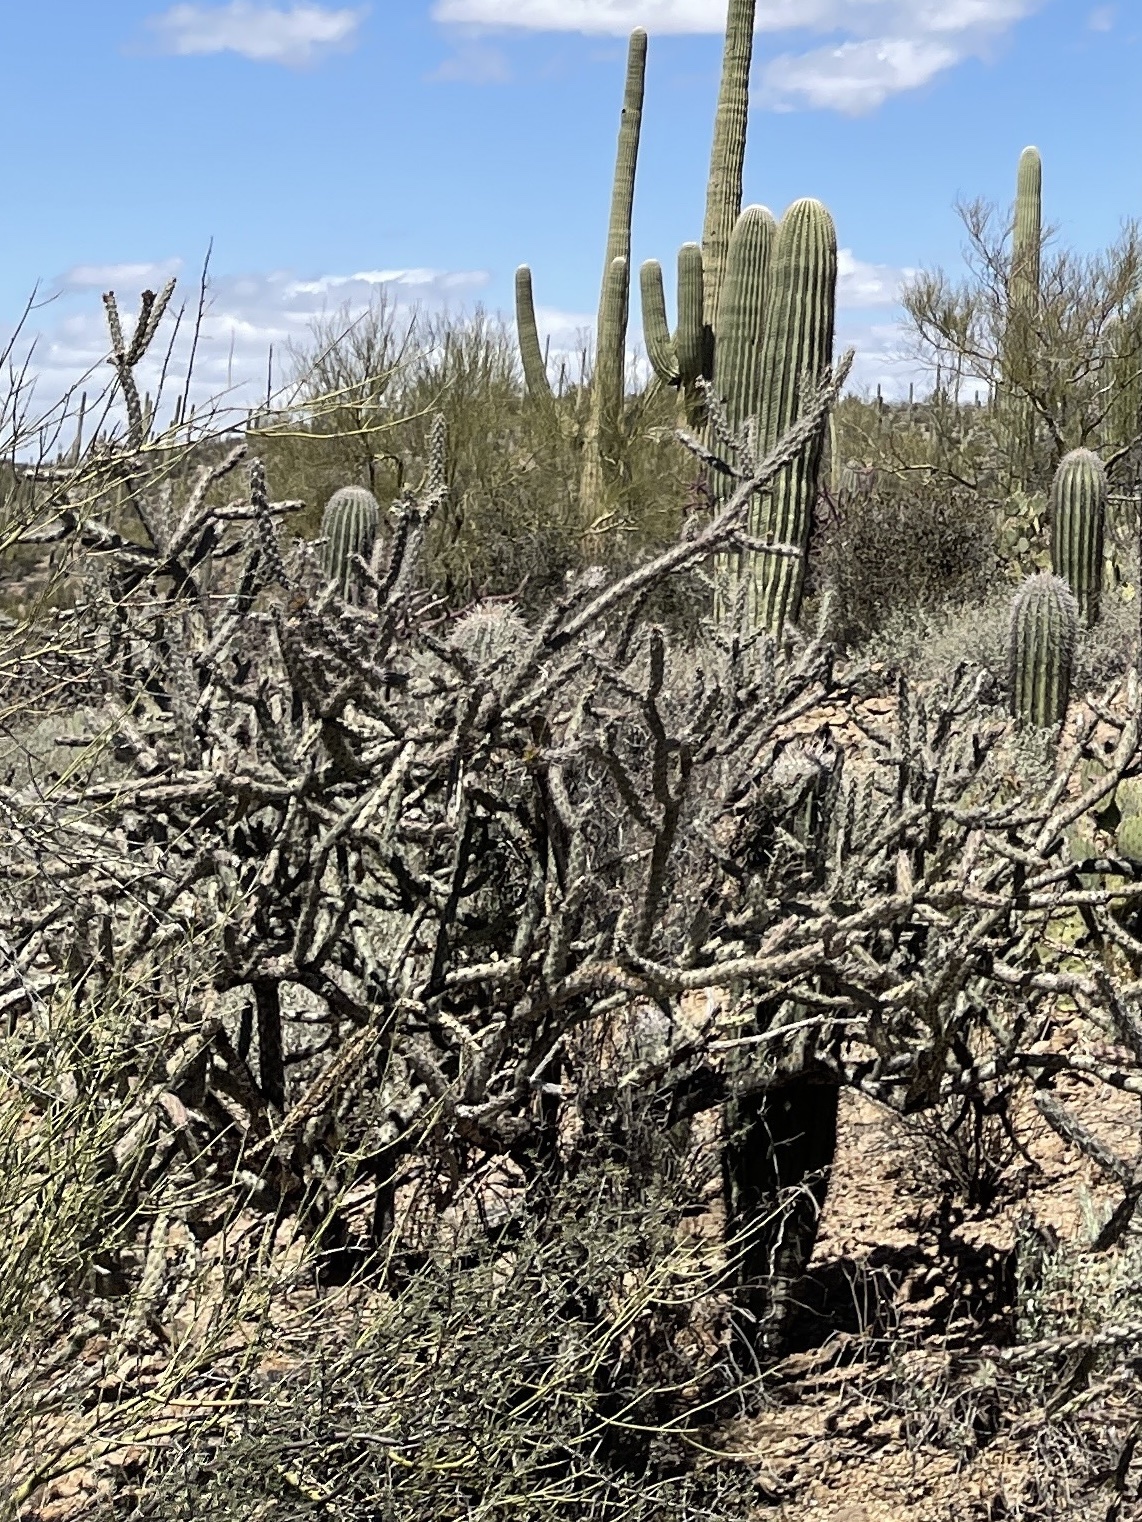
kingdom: Plantae
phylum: Tracheophyta
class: Magnoliopsida
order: Caryophyllales
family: Cactaceae
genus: Cylindropuntia
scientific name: Cylindropuntia imbricata
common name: Candelabrum cactus
